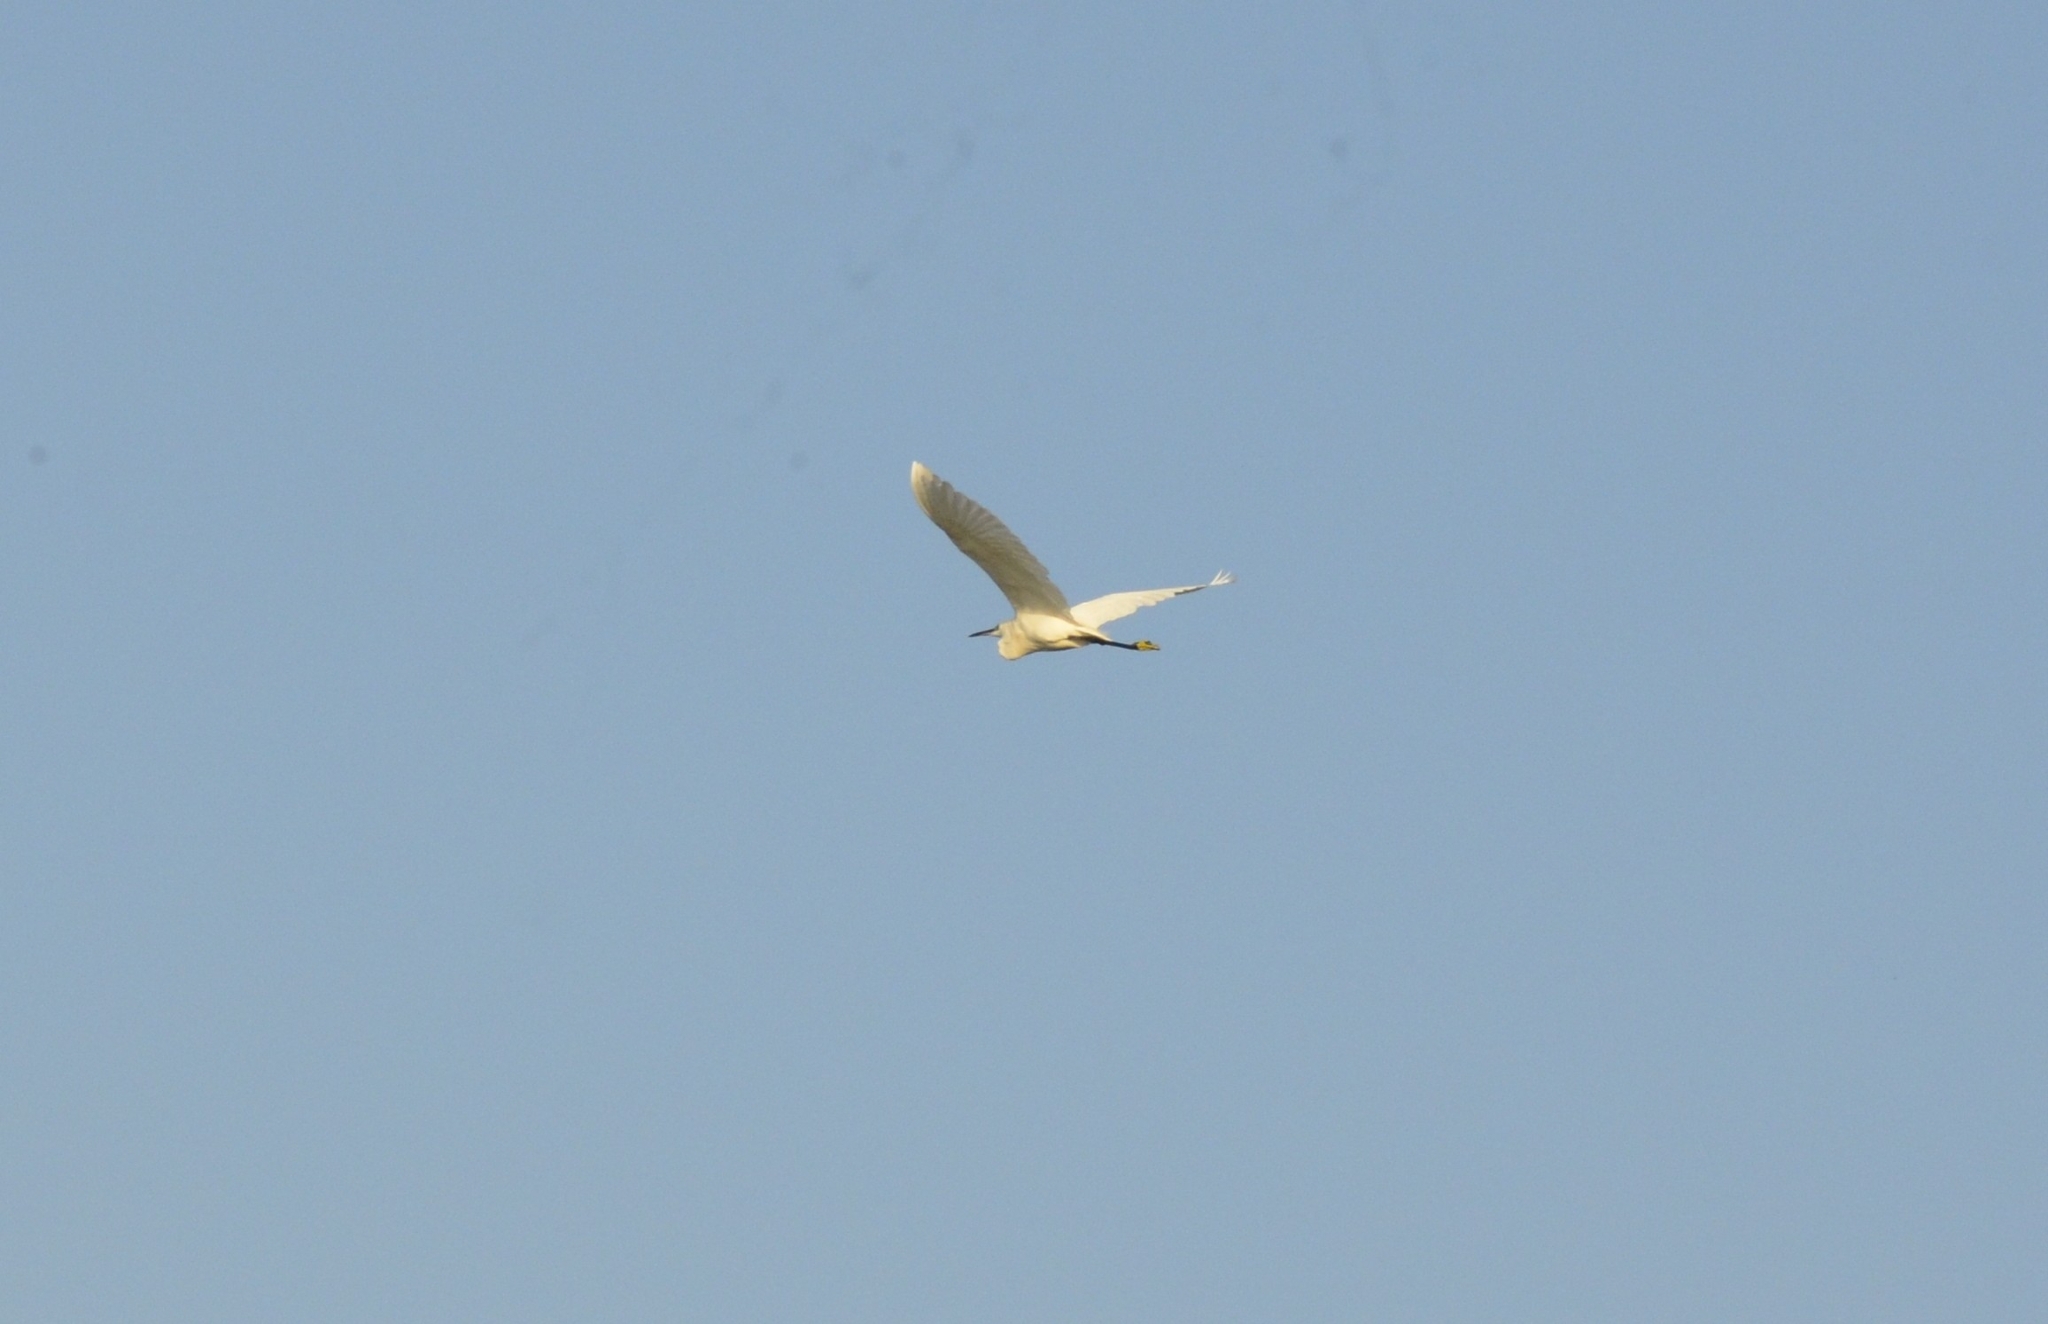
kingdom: Animalia
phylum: Chordata
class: Aves
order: Pelecaniformes
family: Ardeidae
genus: Egretta
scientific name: Egretta garzetta
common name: Little egret
